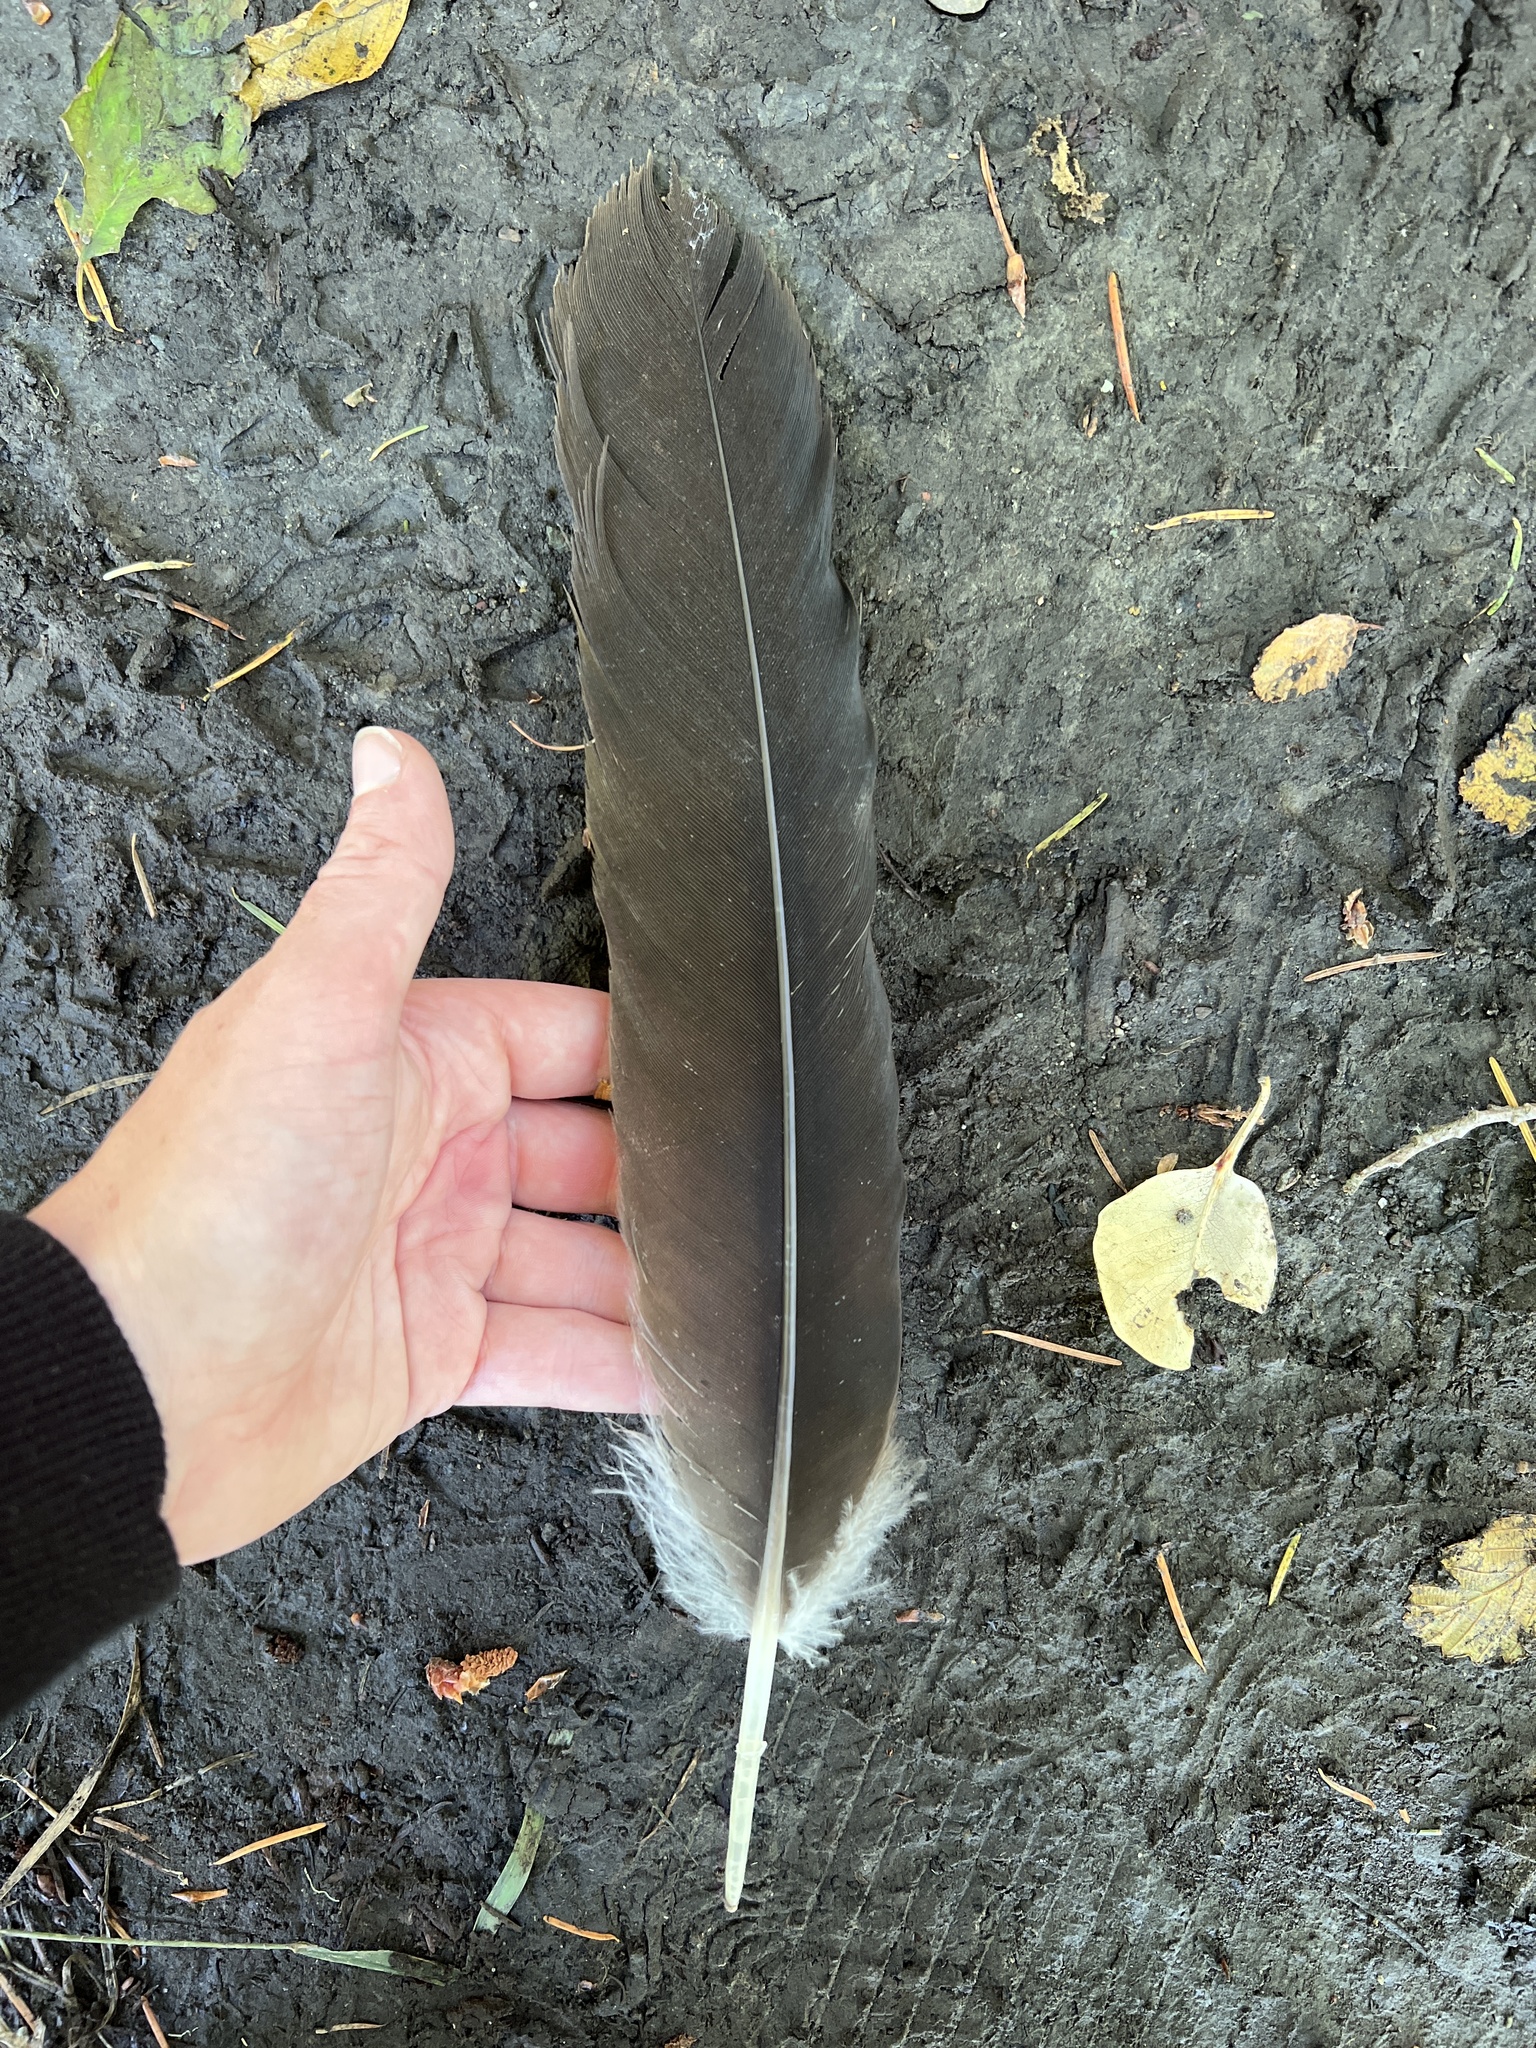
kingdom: Animalia
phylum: Chordata
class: Aves
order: Anseriformes
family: Anatidae
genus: Branta
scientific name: Branta canadensis
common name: Canada goose
